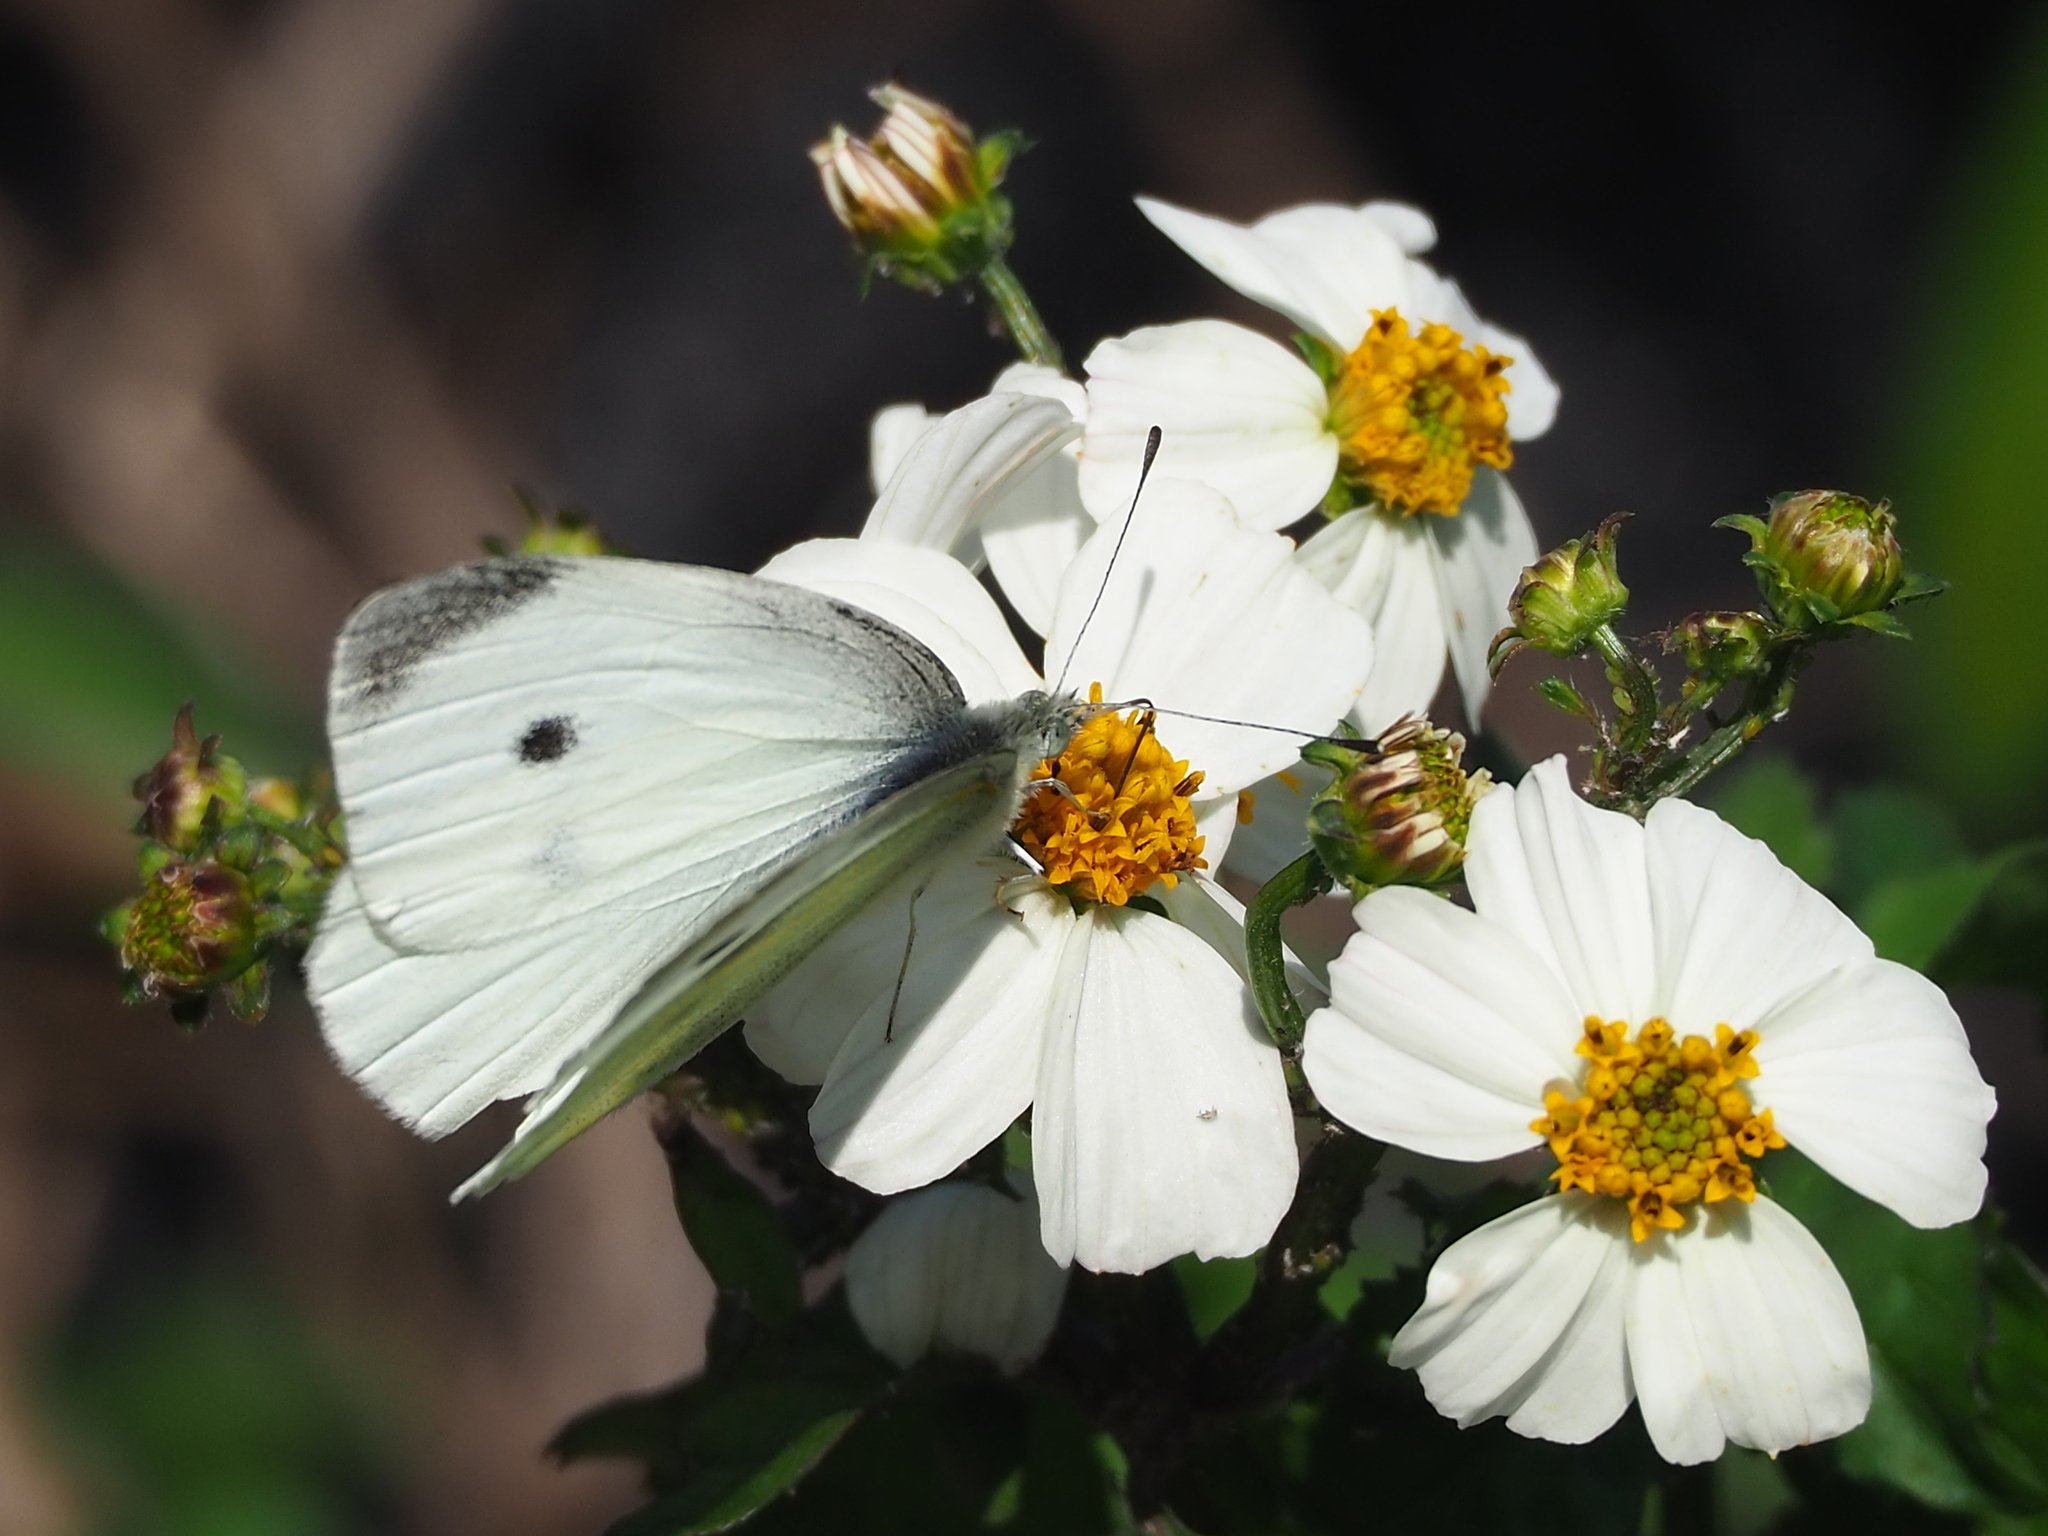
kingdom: Animalia
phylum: Arthropoda
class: Insecta
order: Lepidoptera
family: Pieridae
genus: Pieris
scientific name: Pieris rapae
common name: Small white
